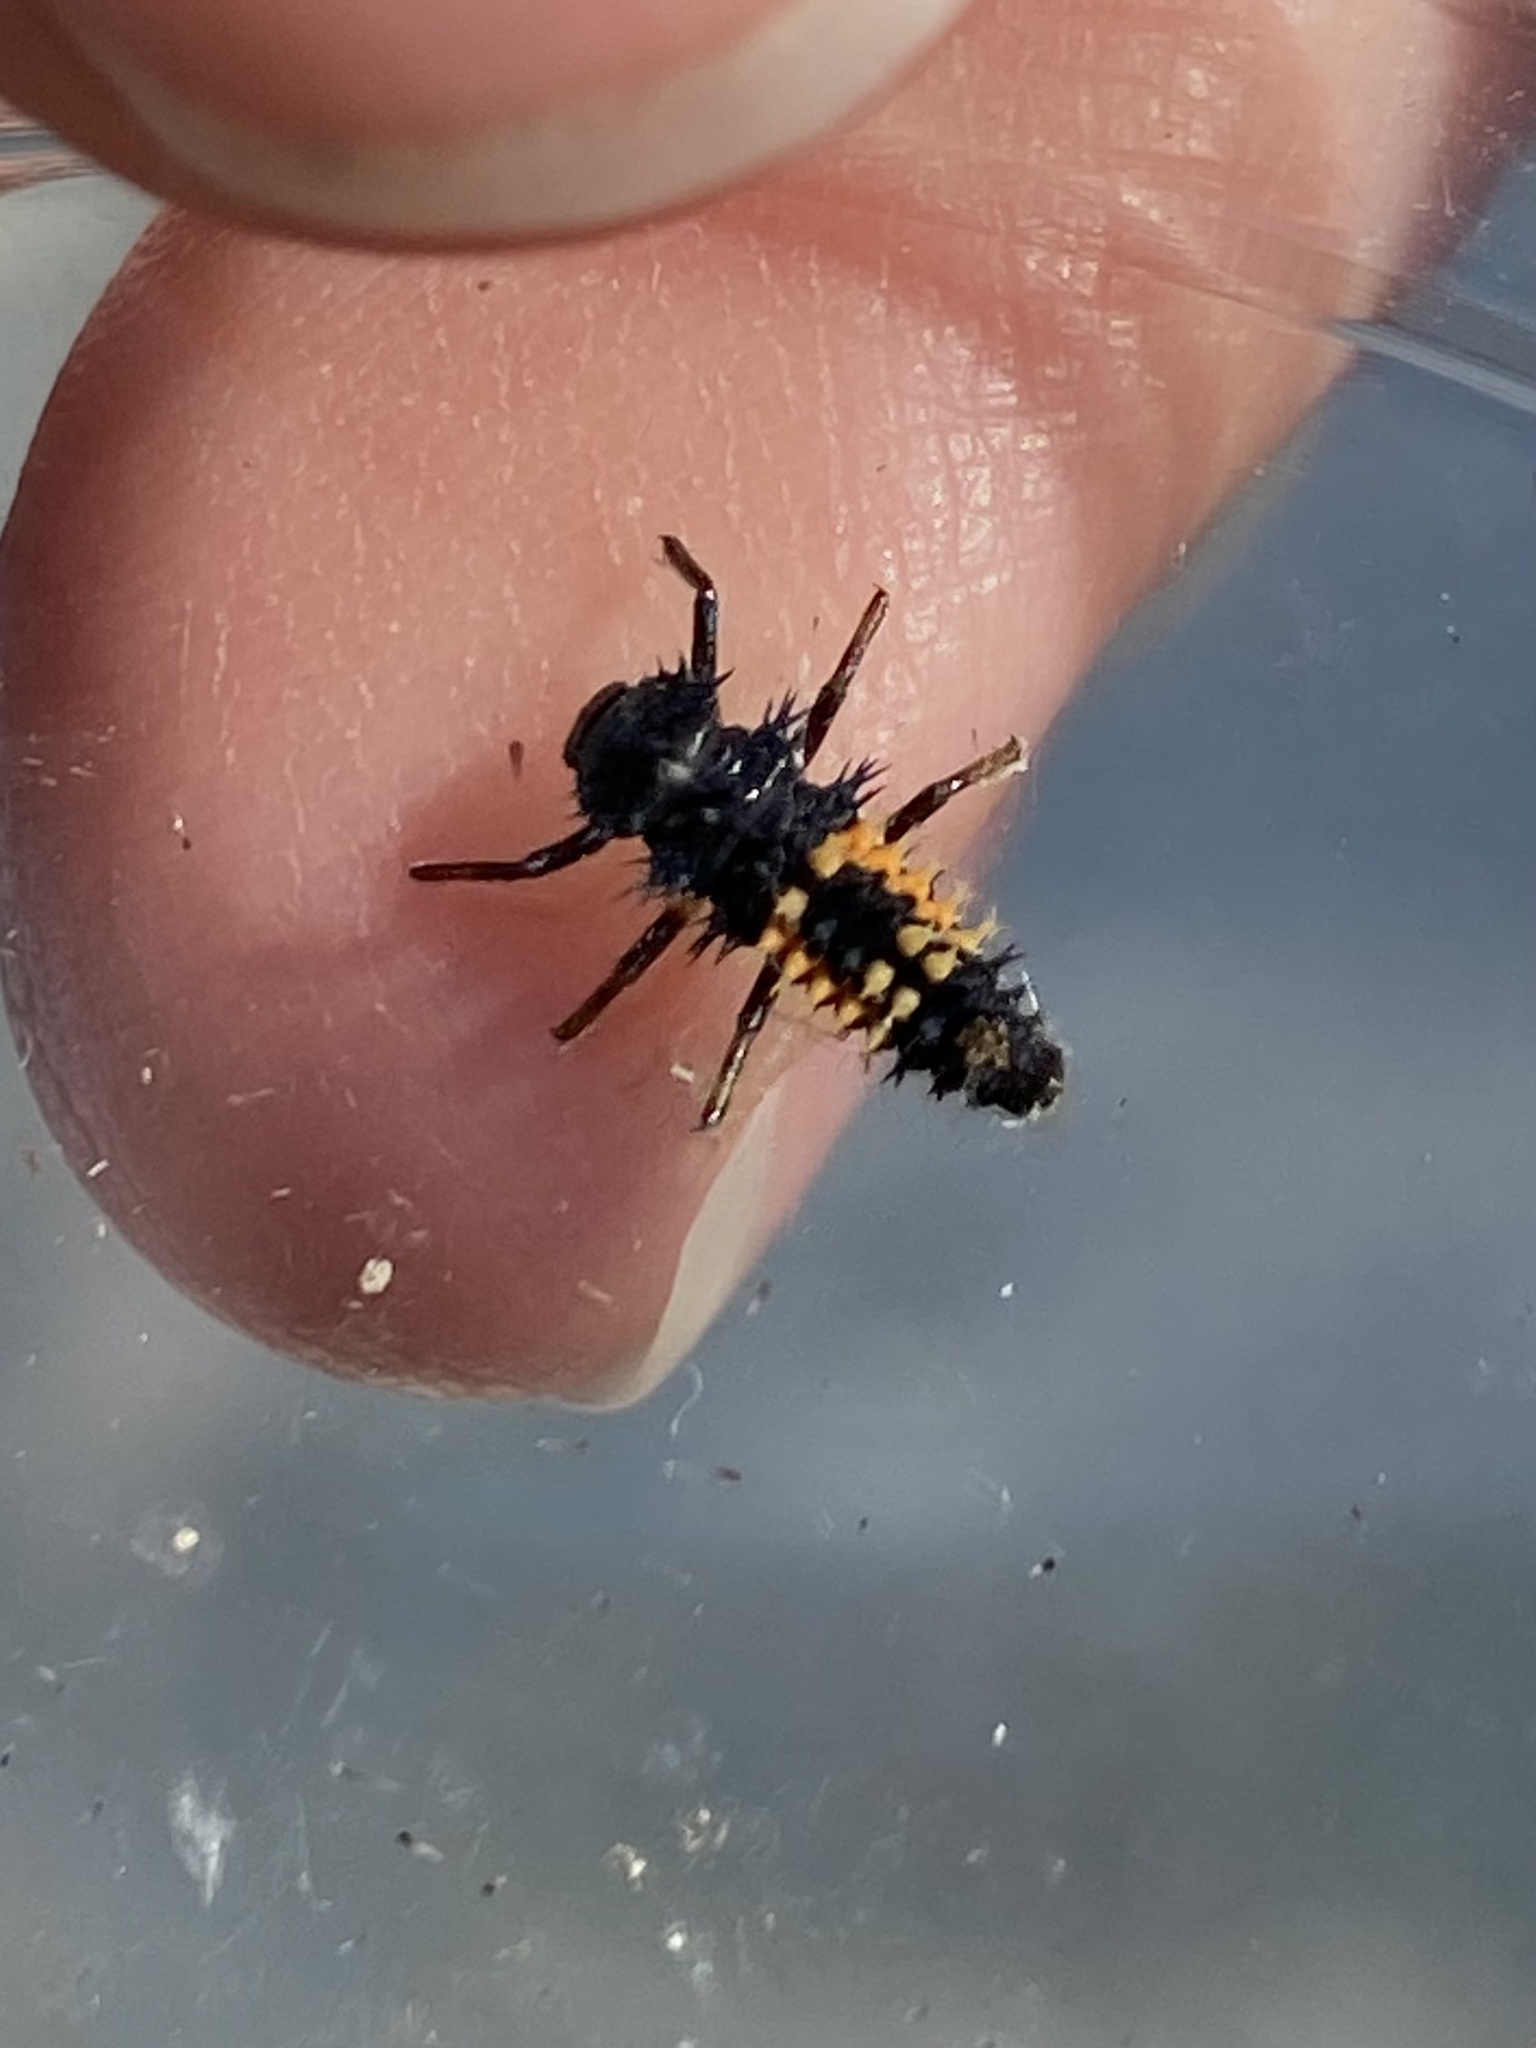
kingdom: Animalia
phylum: Arthropoda
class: Insecta
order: Coleoptera
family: Coccinellidae
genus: Harmonia
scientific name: Harmonia axyridis
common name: Harlequin ladybird
